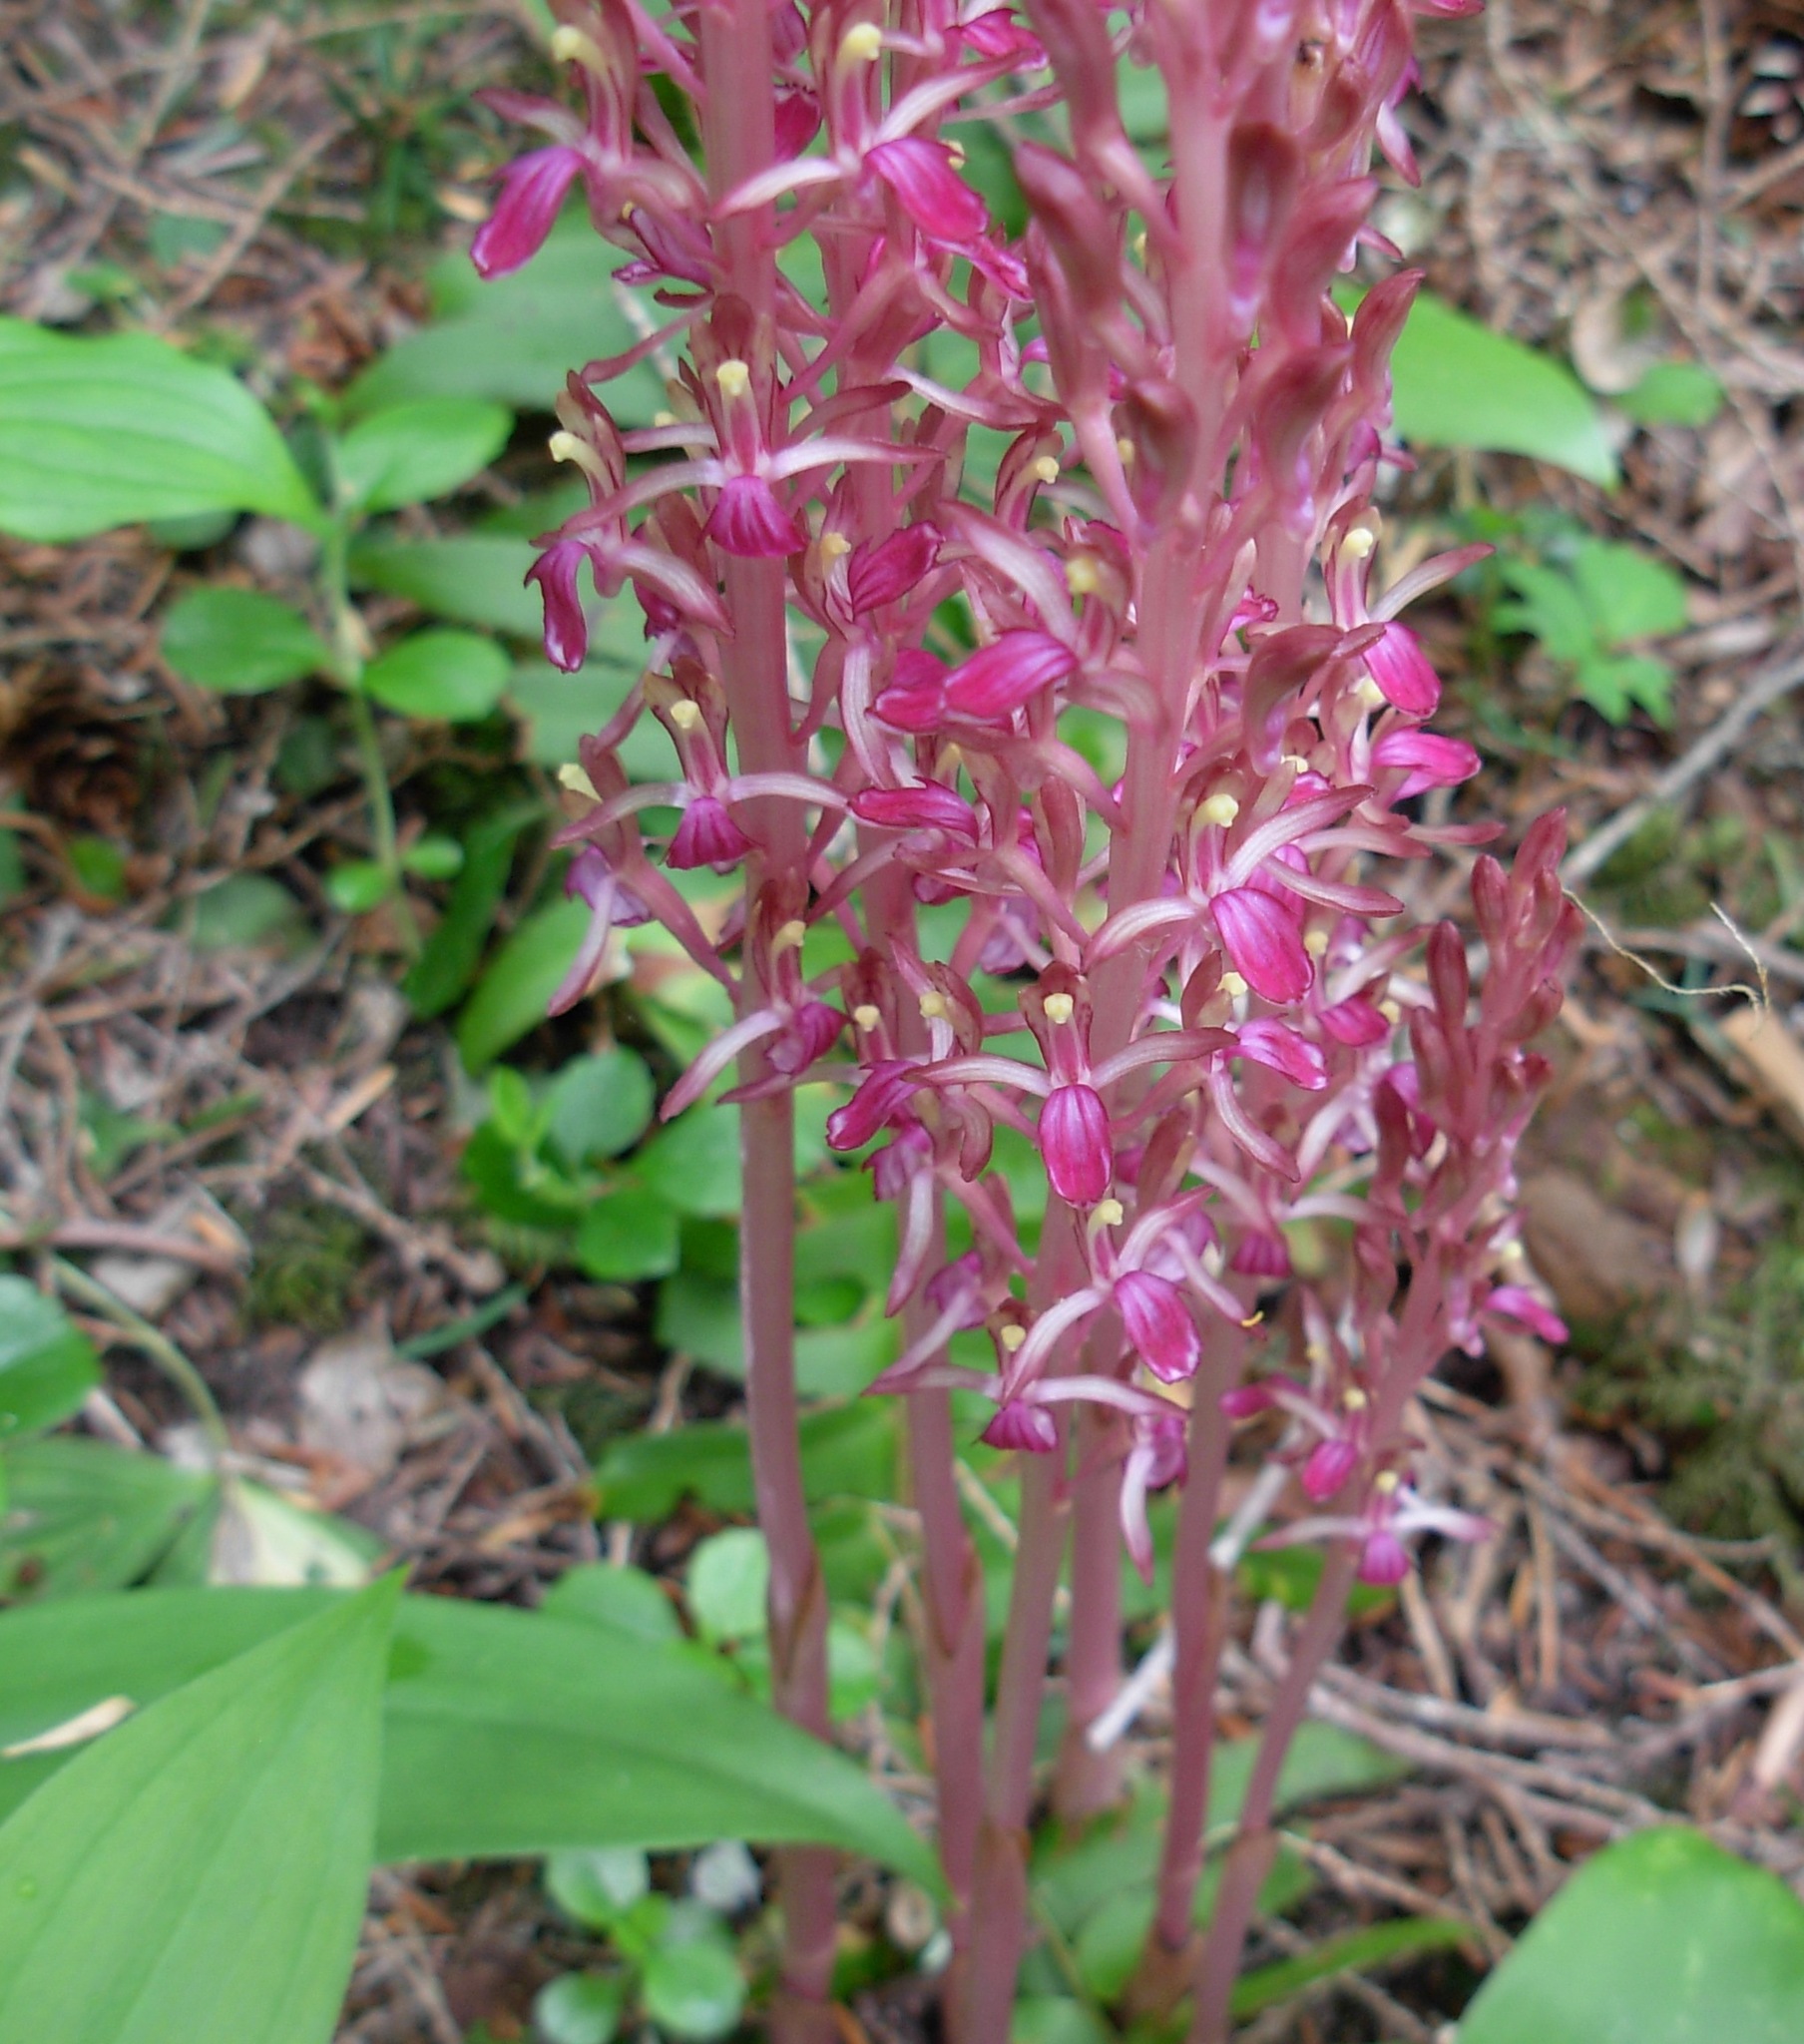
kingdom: Plantae
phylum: Tracheophyta
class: Liliopsida
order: Asparagales
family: Orchidaceae
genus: Corallorhiza
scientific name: Corallorhiza mertensiana
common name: Pacific coralroot
